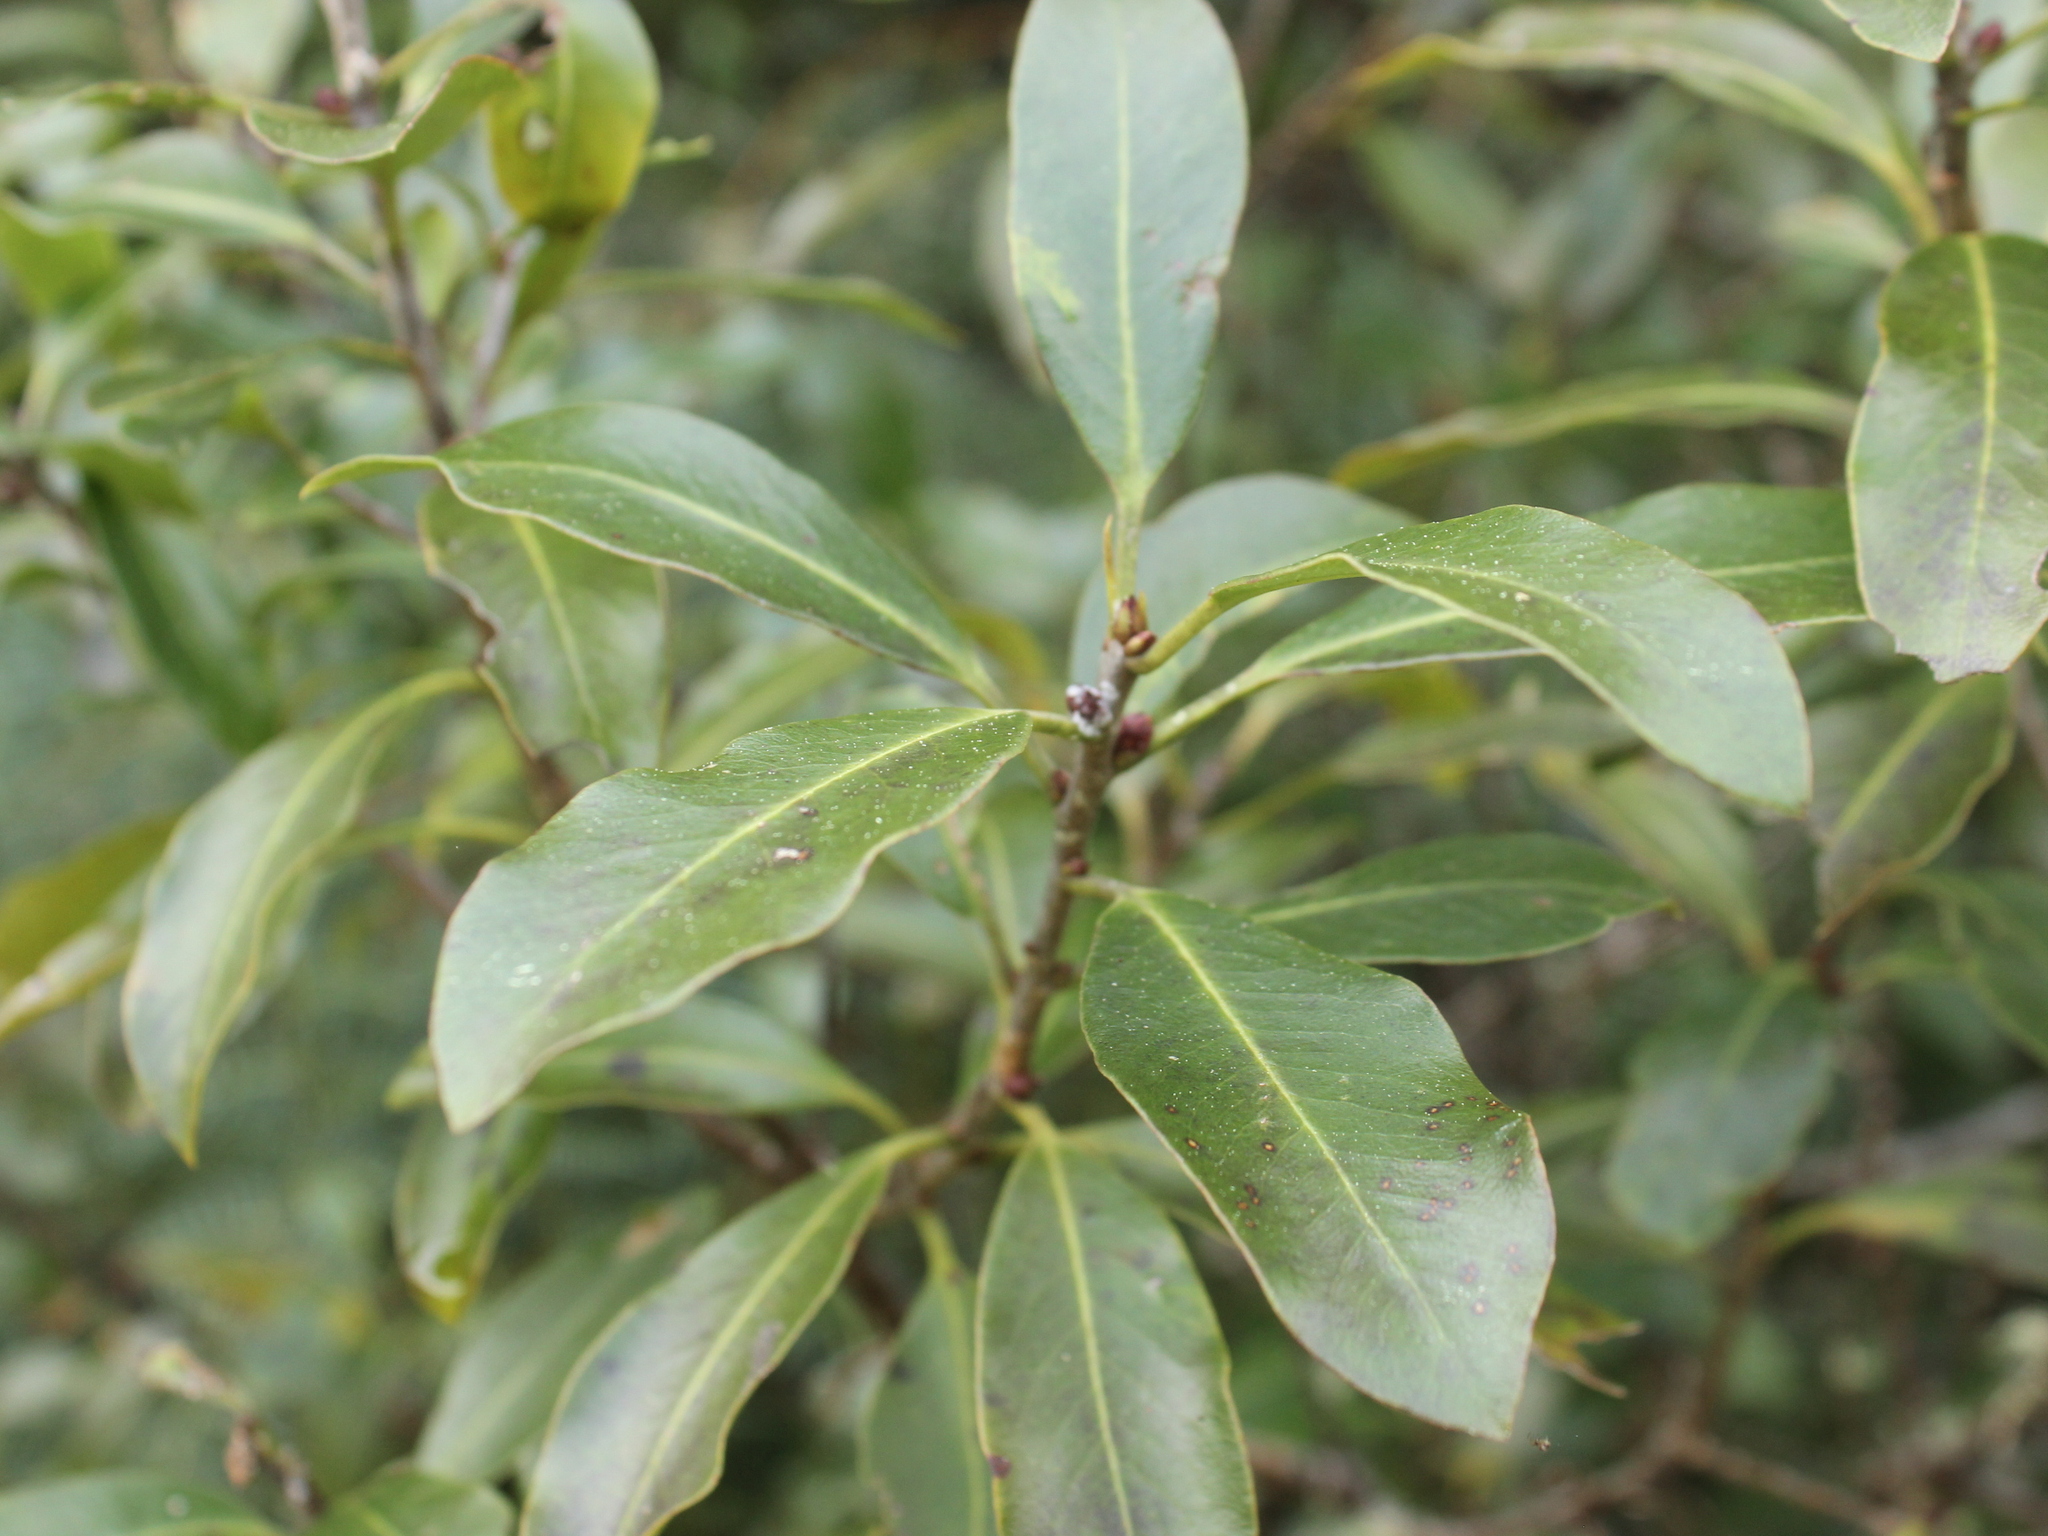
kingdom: Plantae
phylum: Tracheophyta
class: Magnoliopsida
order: Apiales
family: Pittosporaceae
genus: Pittosporum
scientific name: Pittosporum colensoi
